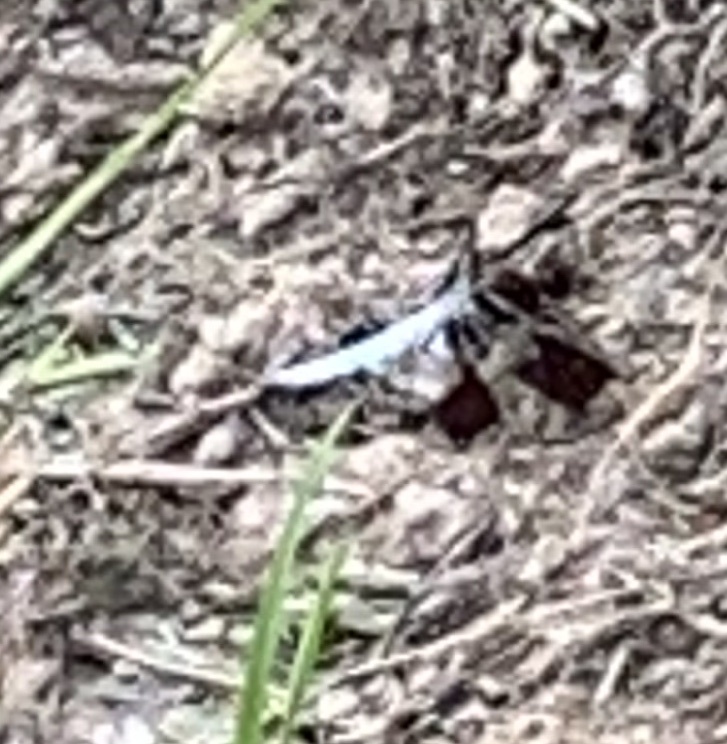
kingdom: Animalia
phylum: Arthropoda
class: Insecta
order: Odonata
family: Libellulidae
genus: Plathemis
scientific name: Plathemis lydia
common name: Common whitetail
